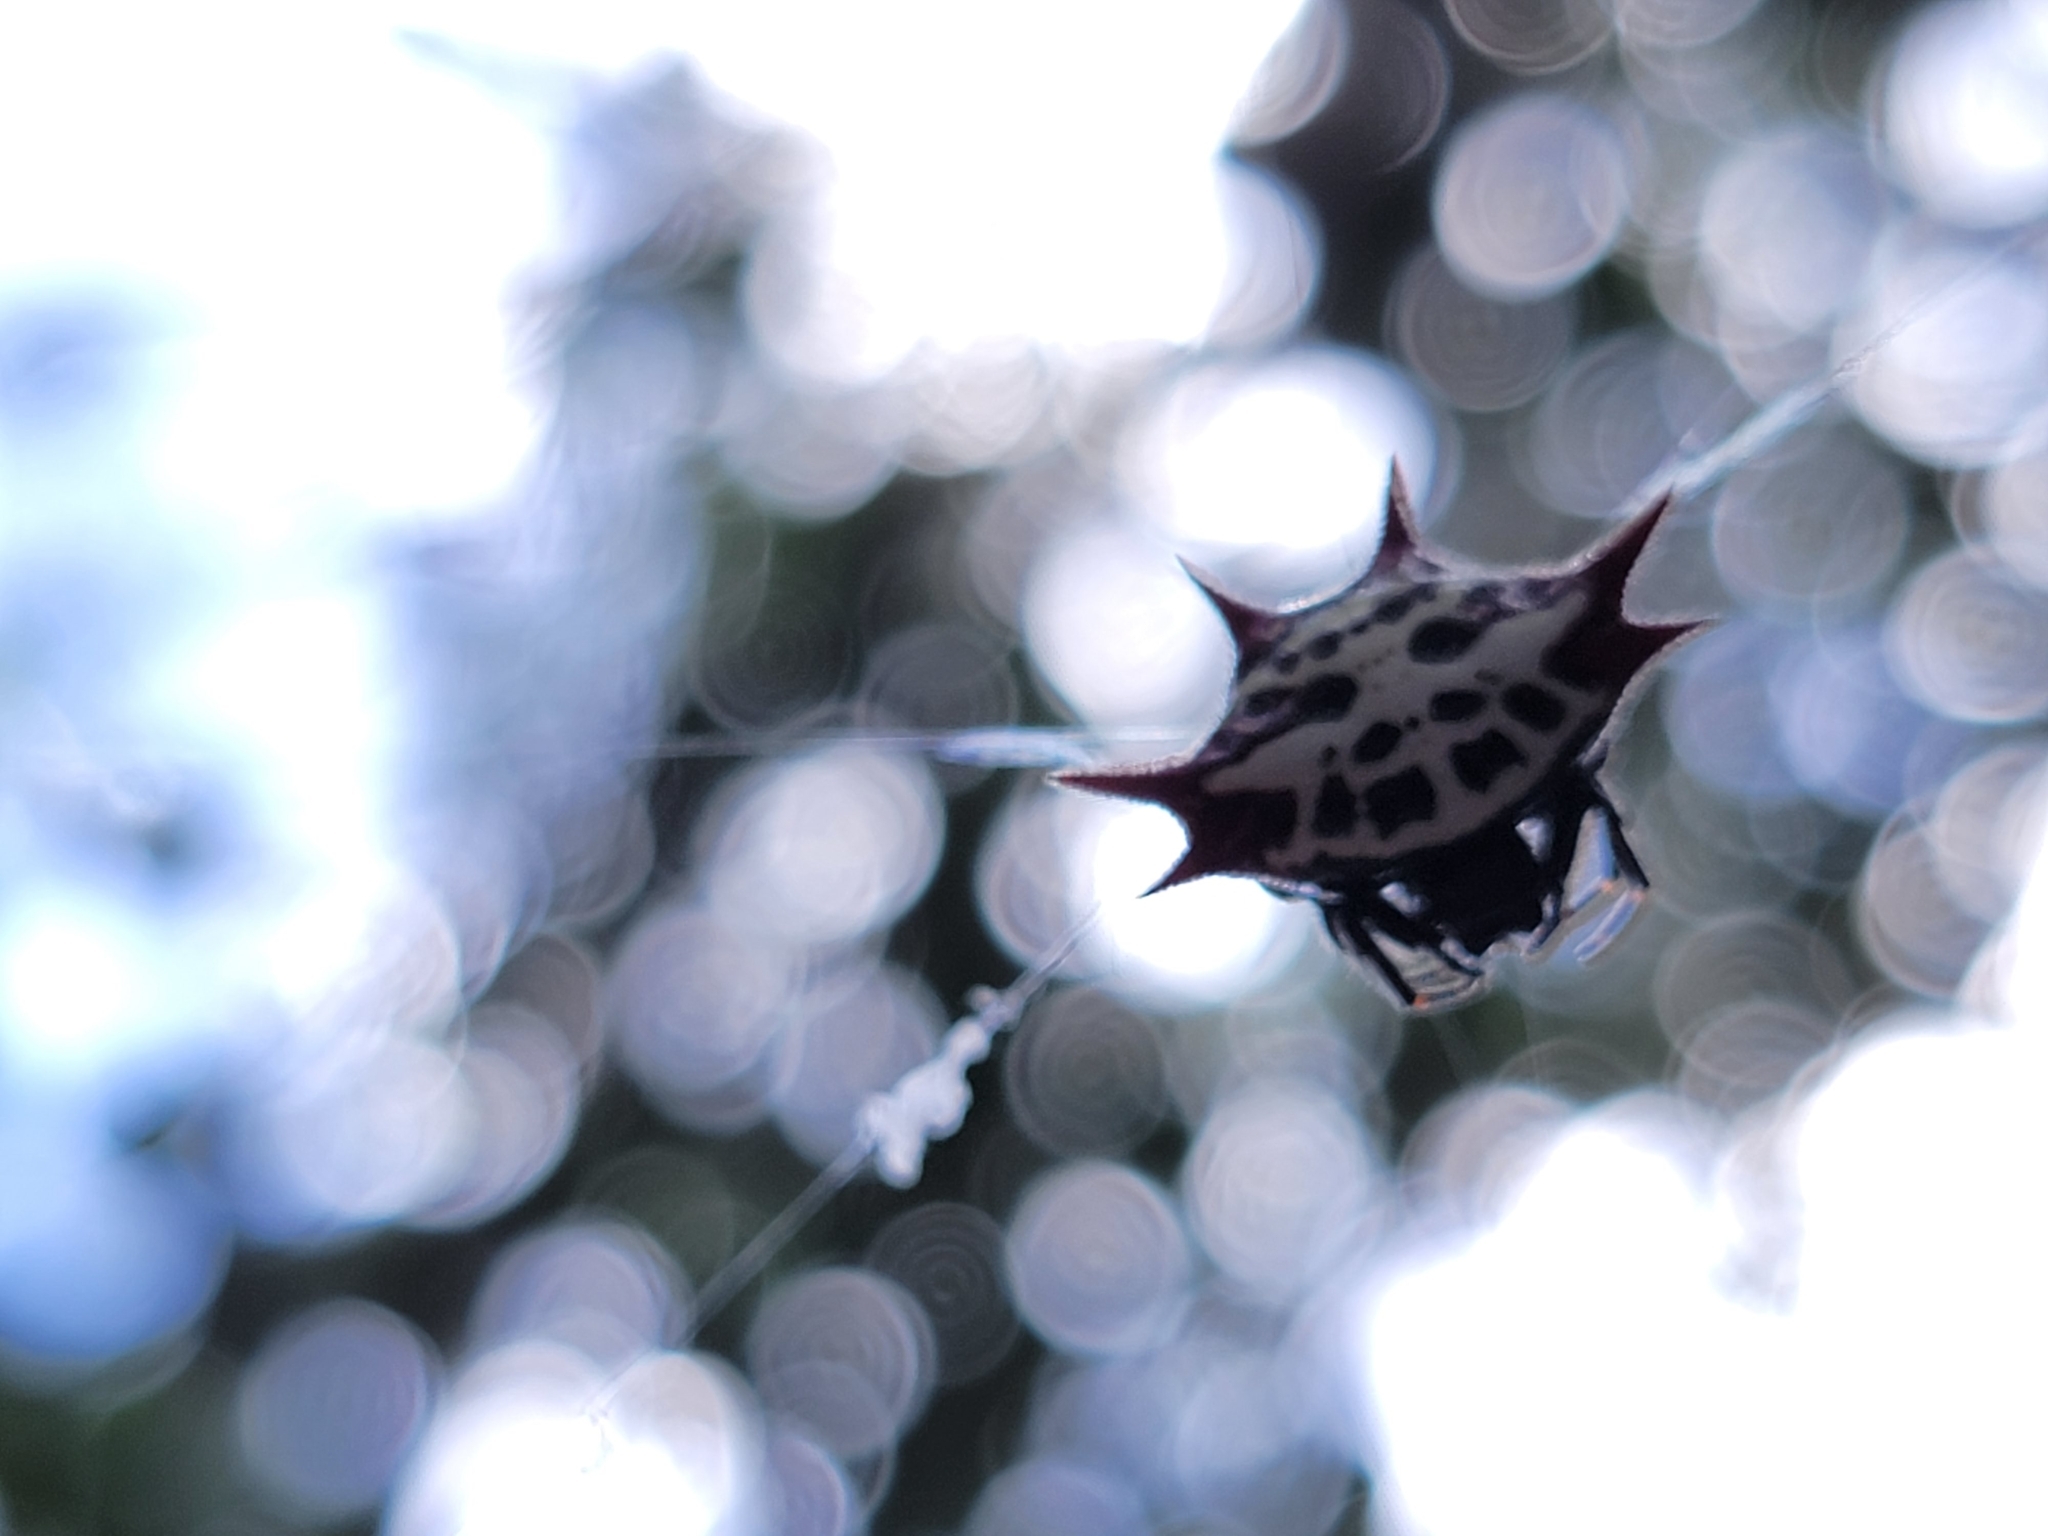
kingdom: Animalia
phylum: Arthropoda
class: Arachnida
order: Araneae
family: Araneidae
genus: Gasteracantha
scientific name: Gasteracantha cancriformis
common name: Orb weavers
